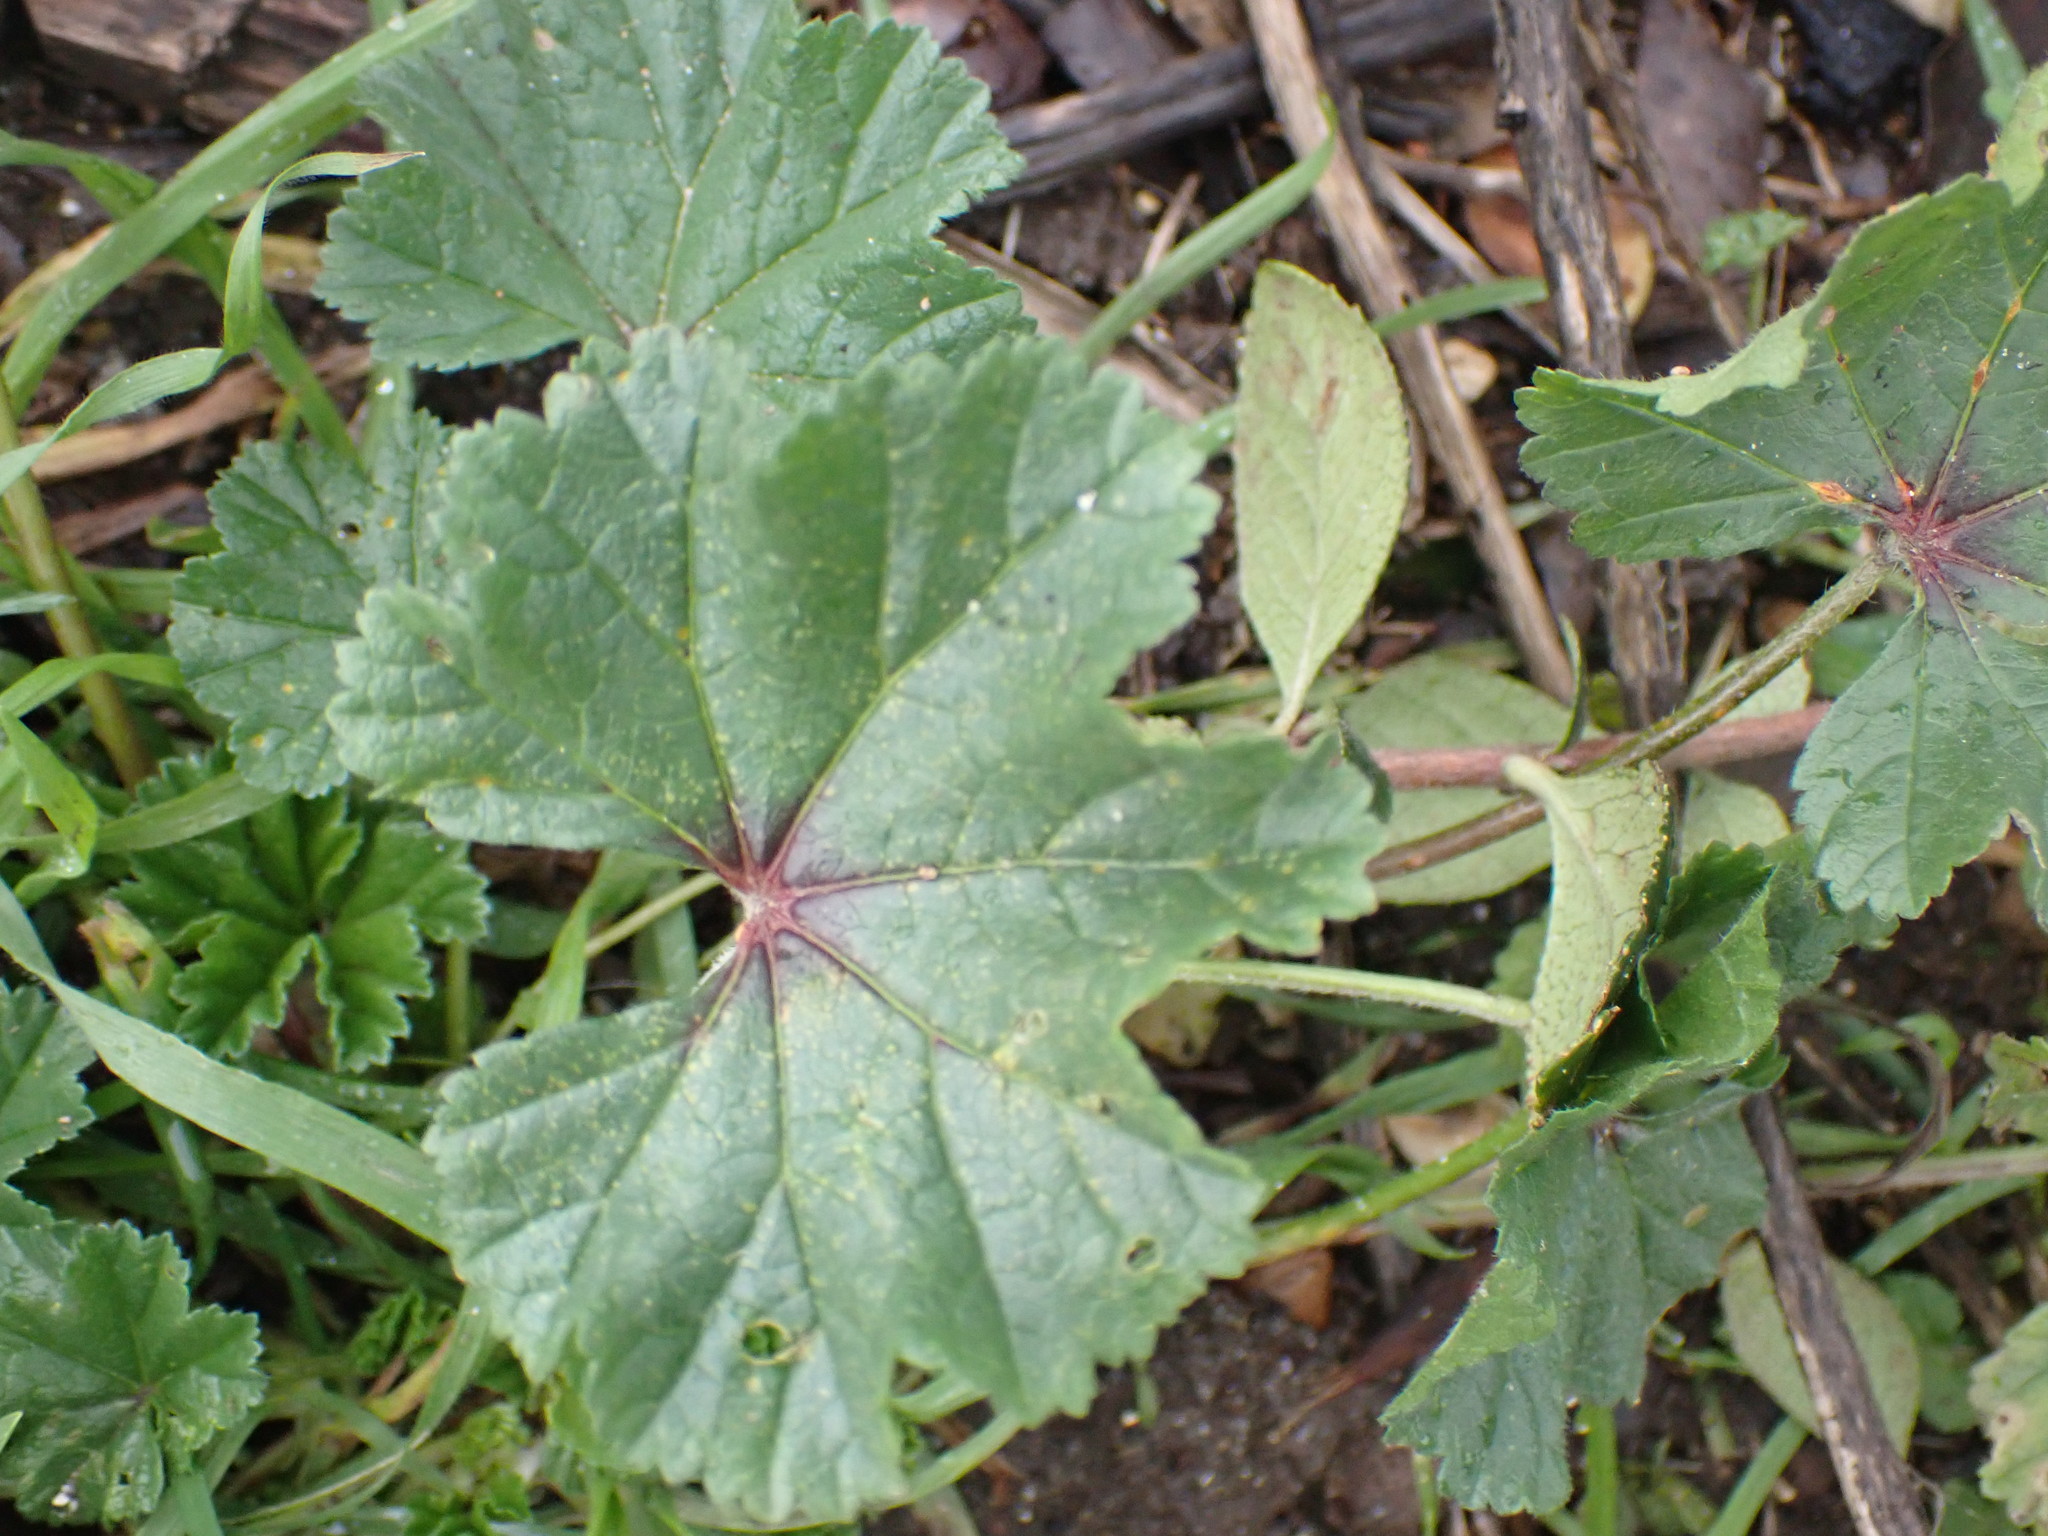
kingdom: Plantae
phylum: Tracheophyta
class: Magnoliopsida
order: Malvales
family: Malvaceae
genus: Malva
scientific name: Malva sylvestris
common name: Common mallow
